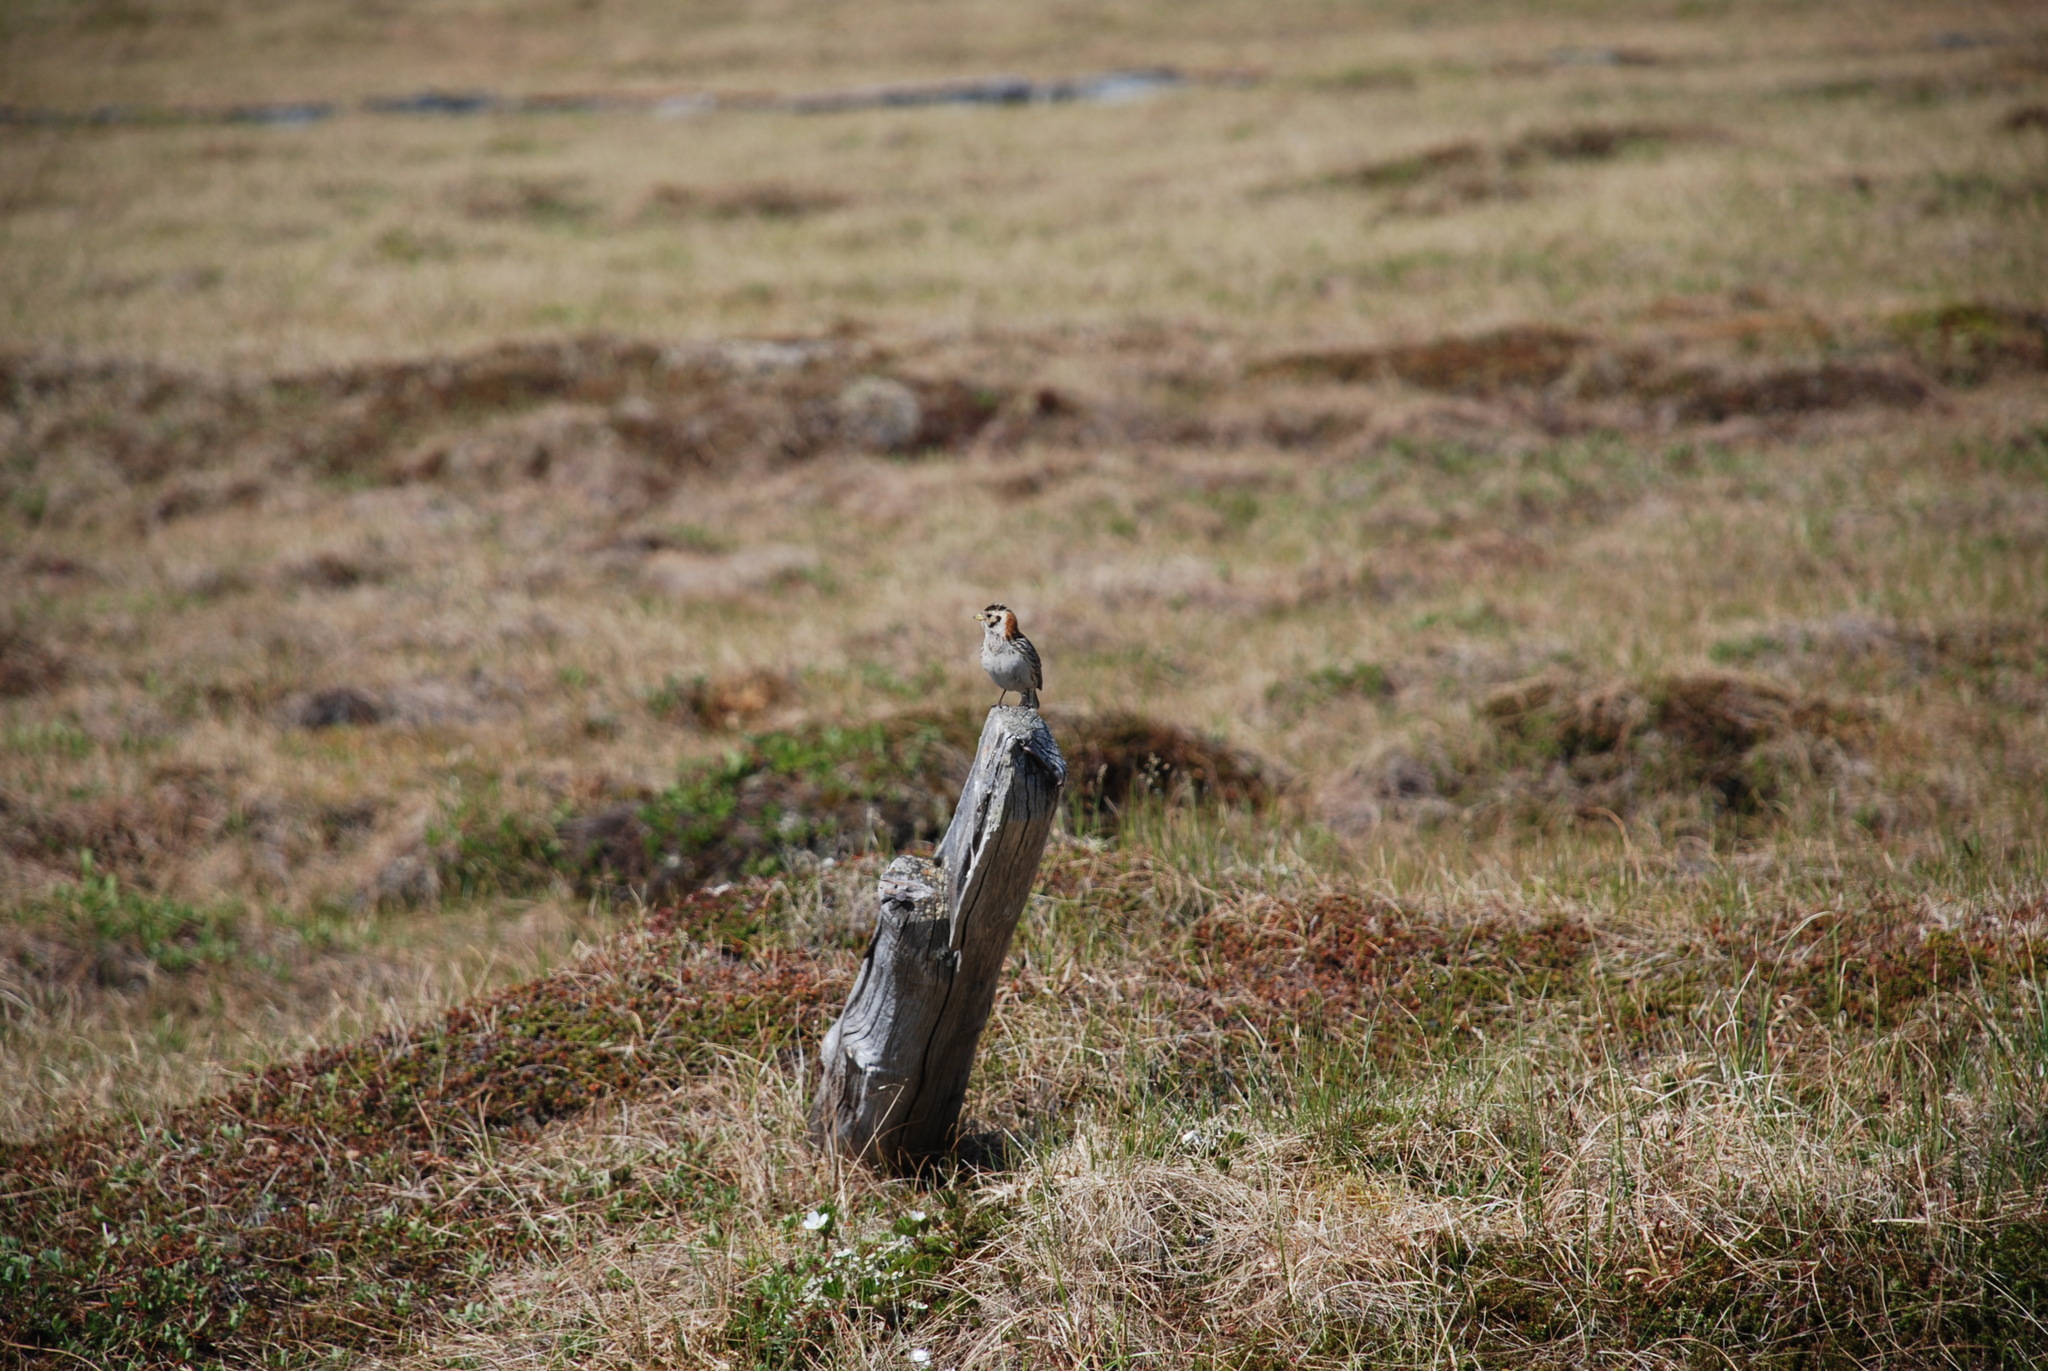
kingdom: Animalia
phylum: Chordata
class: Aves
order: Passeriformes
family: Calcariidae
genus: Calcarius
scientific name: Calcarius lapponicus
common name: Lapland longspur
